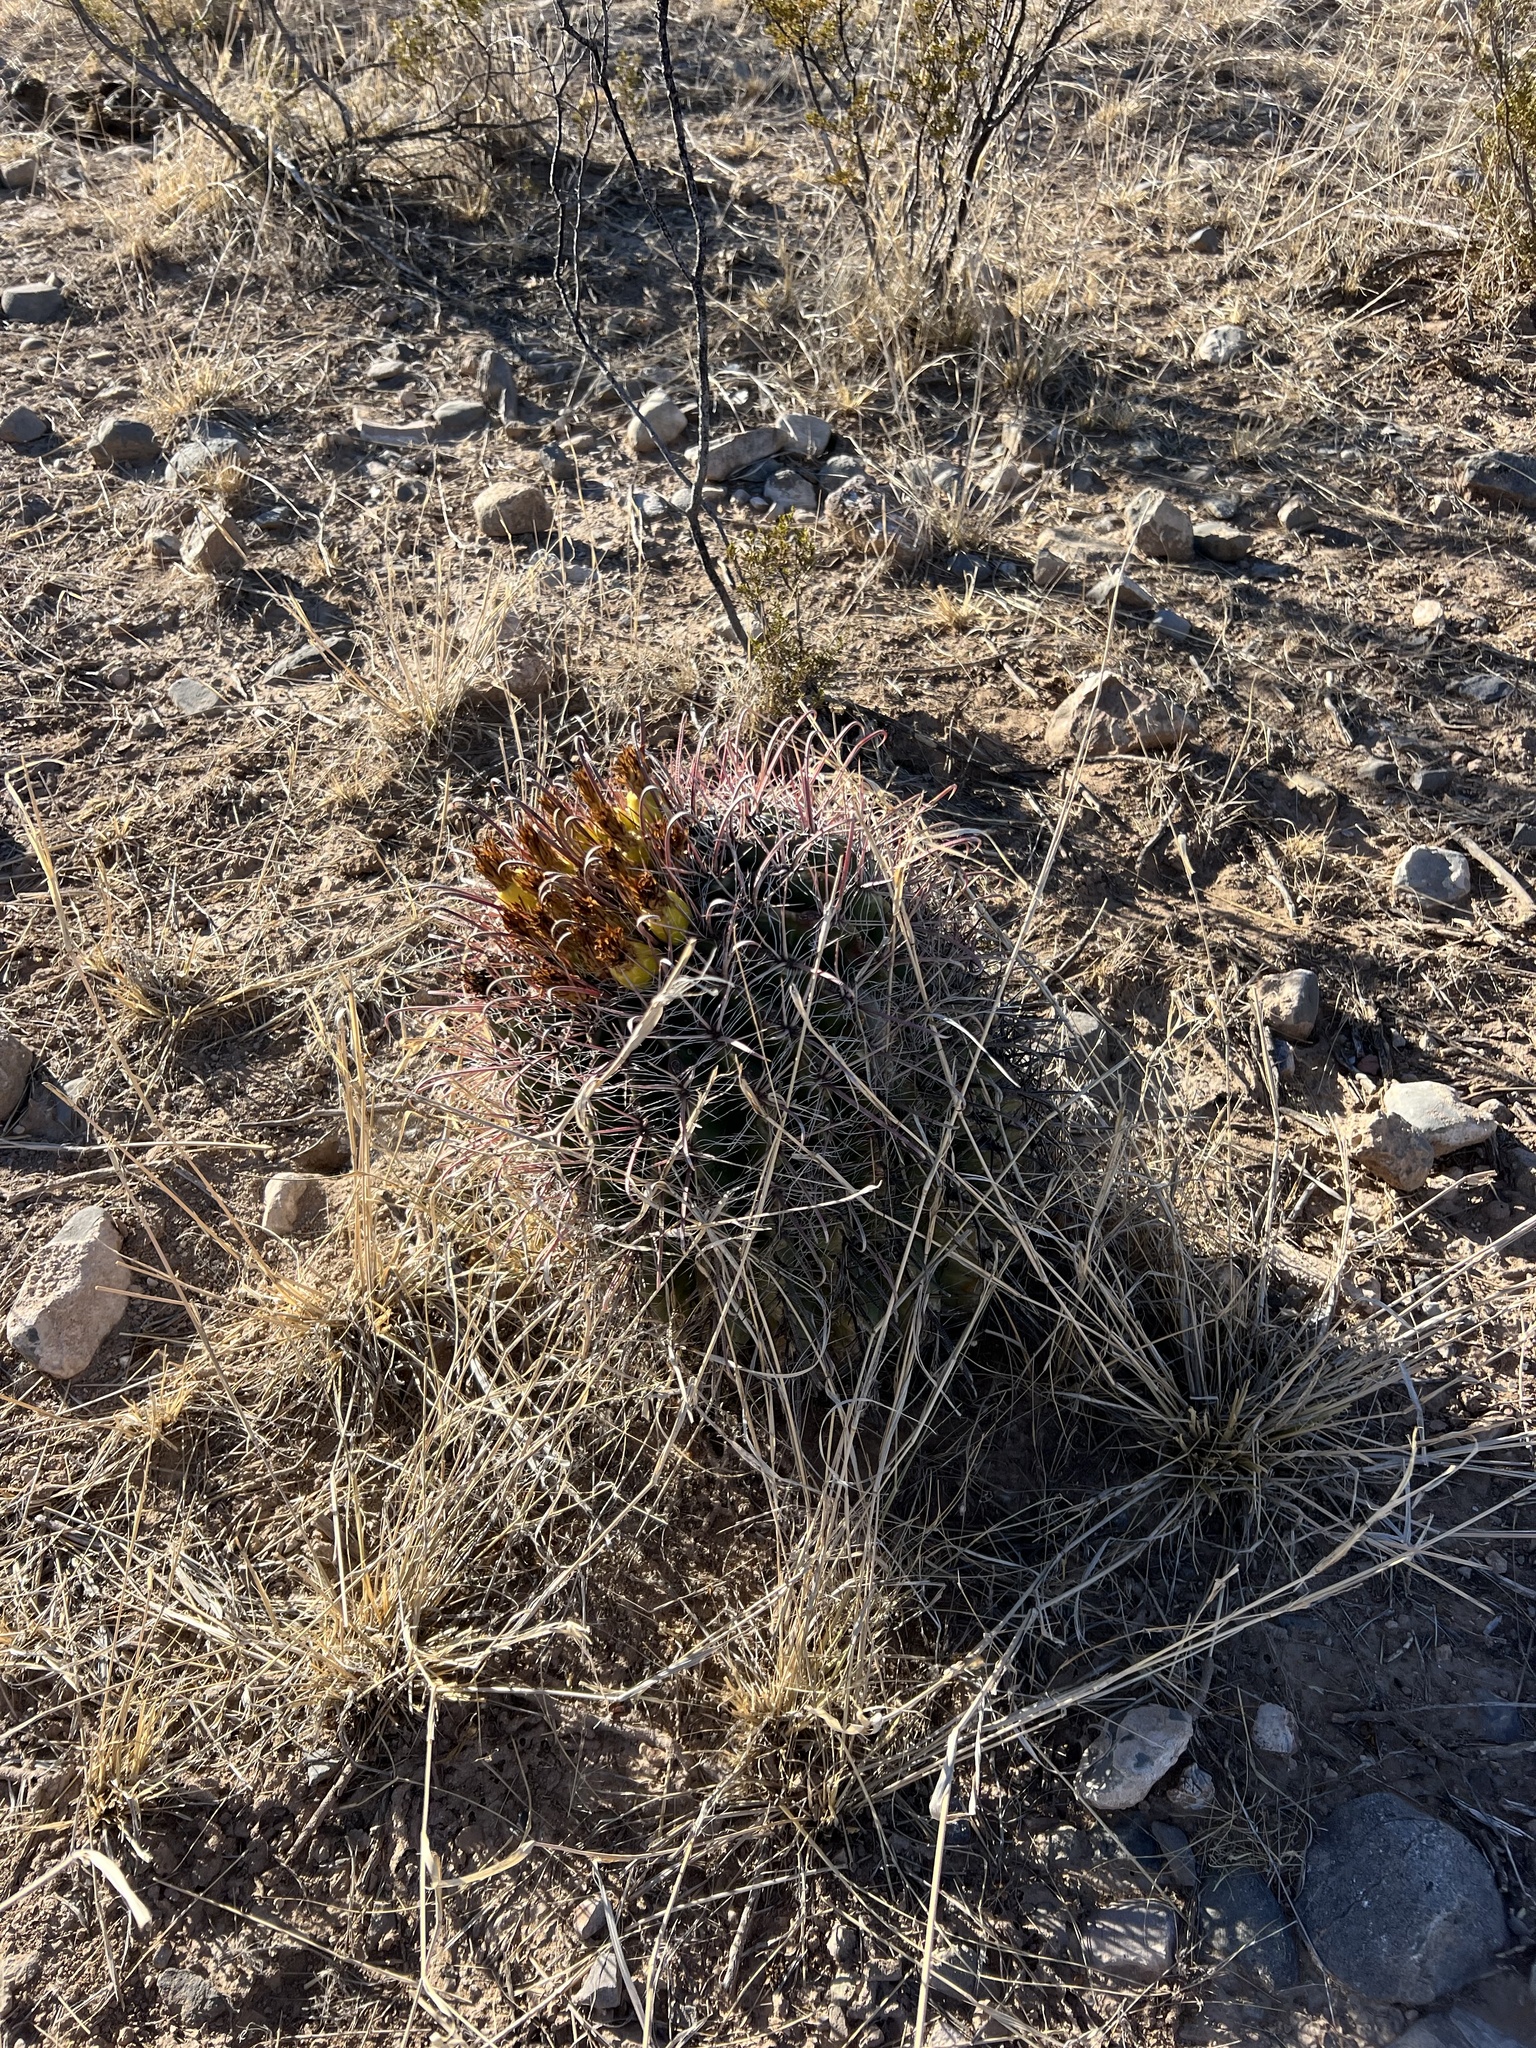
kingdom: Plantae
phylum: Tracheophyta
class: Magnoliopsida
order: Caryophyllales
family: Cactaceae
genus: Ferocactus
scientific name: Ferocactus wislizeni
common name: Candy barrel cactus
